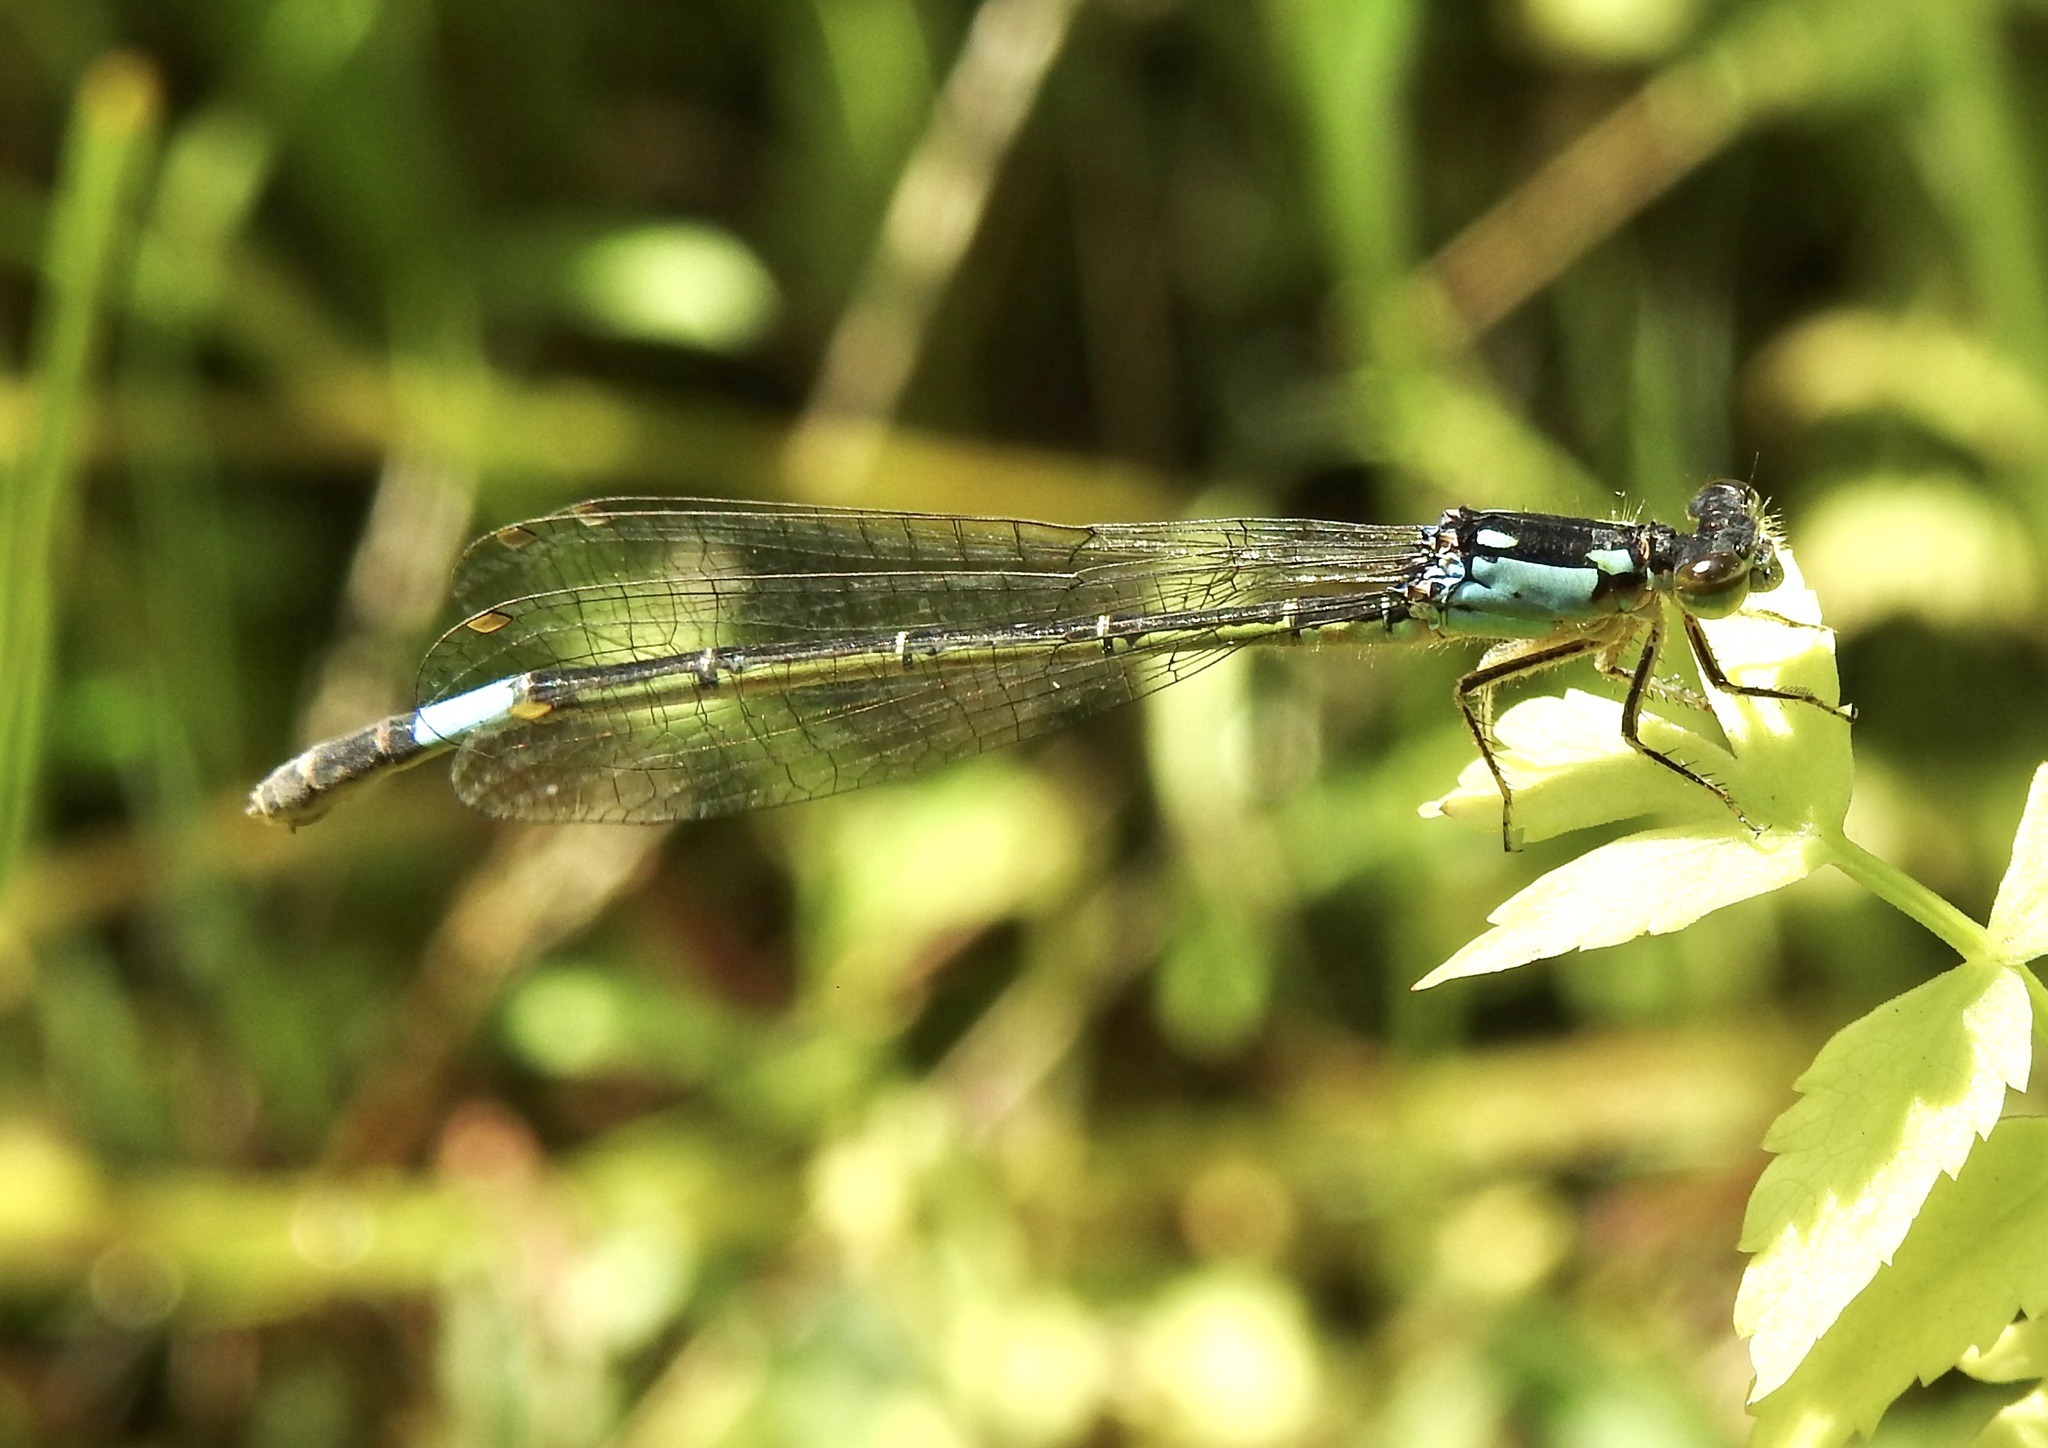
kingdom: Animalia
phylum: Arthropoda
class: Insecta
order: Odonata
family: Coenagrionidae
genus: Hesperagrion
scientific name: Hesperagrion heterodoxum
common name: Painted damsel
